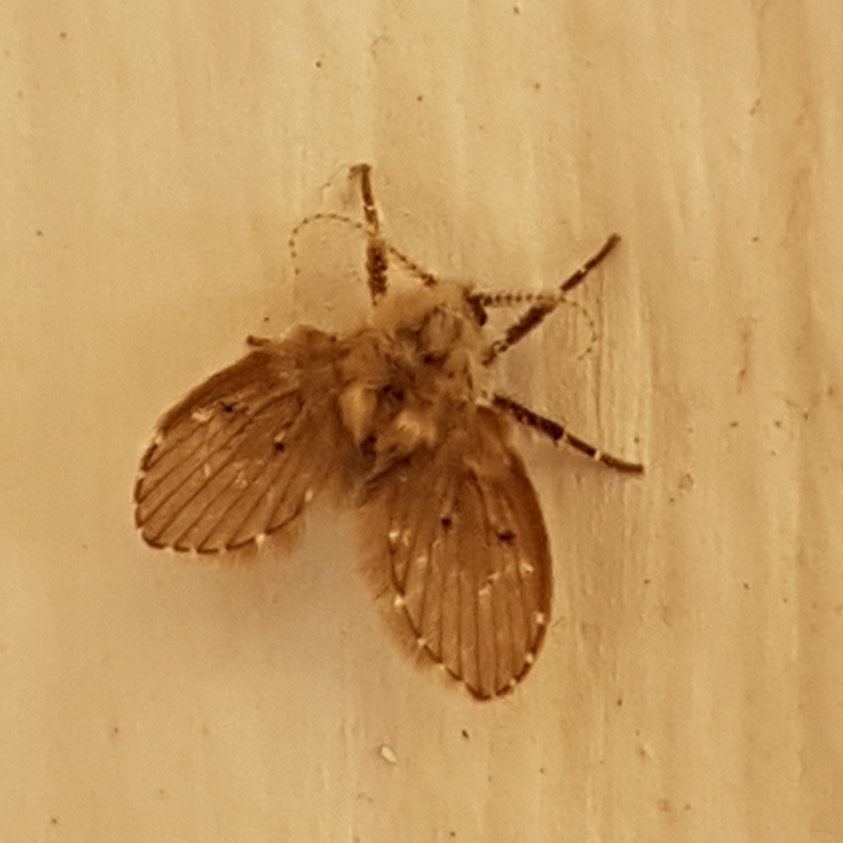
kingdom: Animalia
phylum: Arthropoda
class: Insecta
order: Diptera
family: Psychodidae
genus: Clogmia
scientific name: Clogmia albipunctatus
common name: White-spotted moth fly
